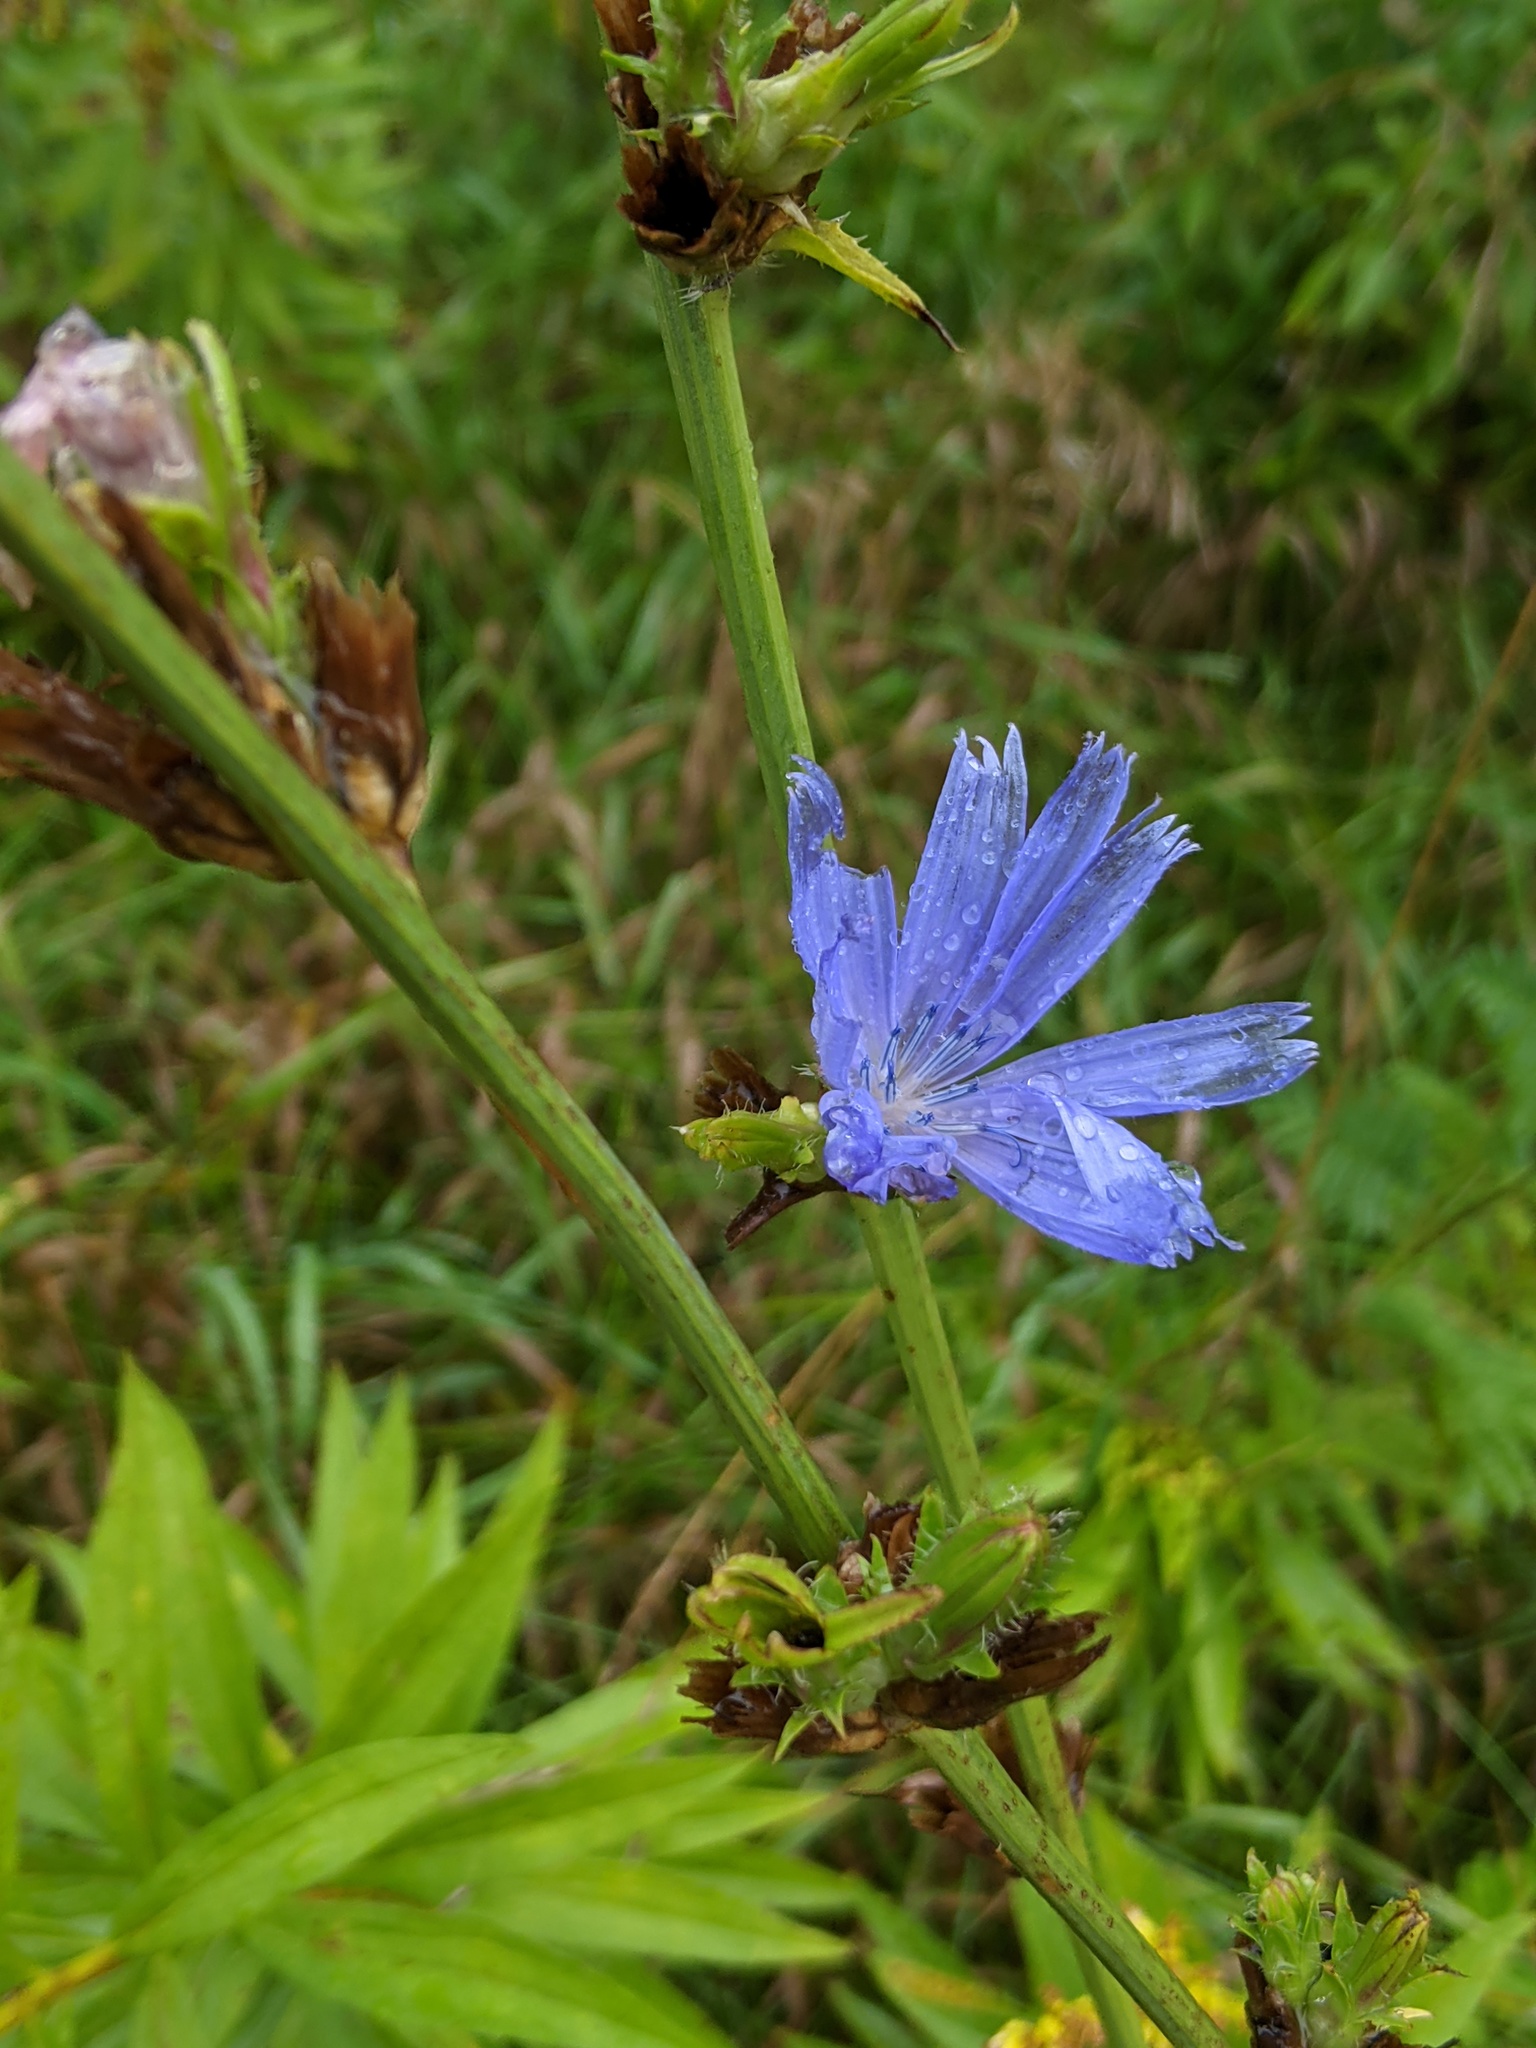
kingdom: Plantae
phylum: Tracheophyta
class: Magnoliopsida
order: Asterales
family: Asteraceae
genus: Cichorium
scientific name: Cichorium intybus
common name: Chicory
